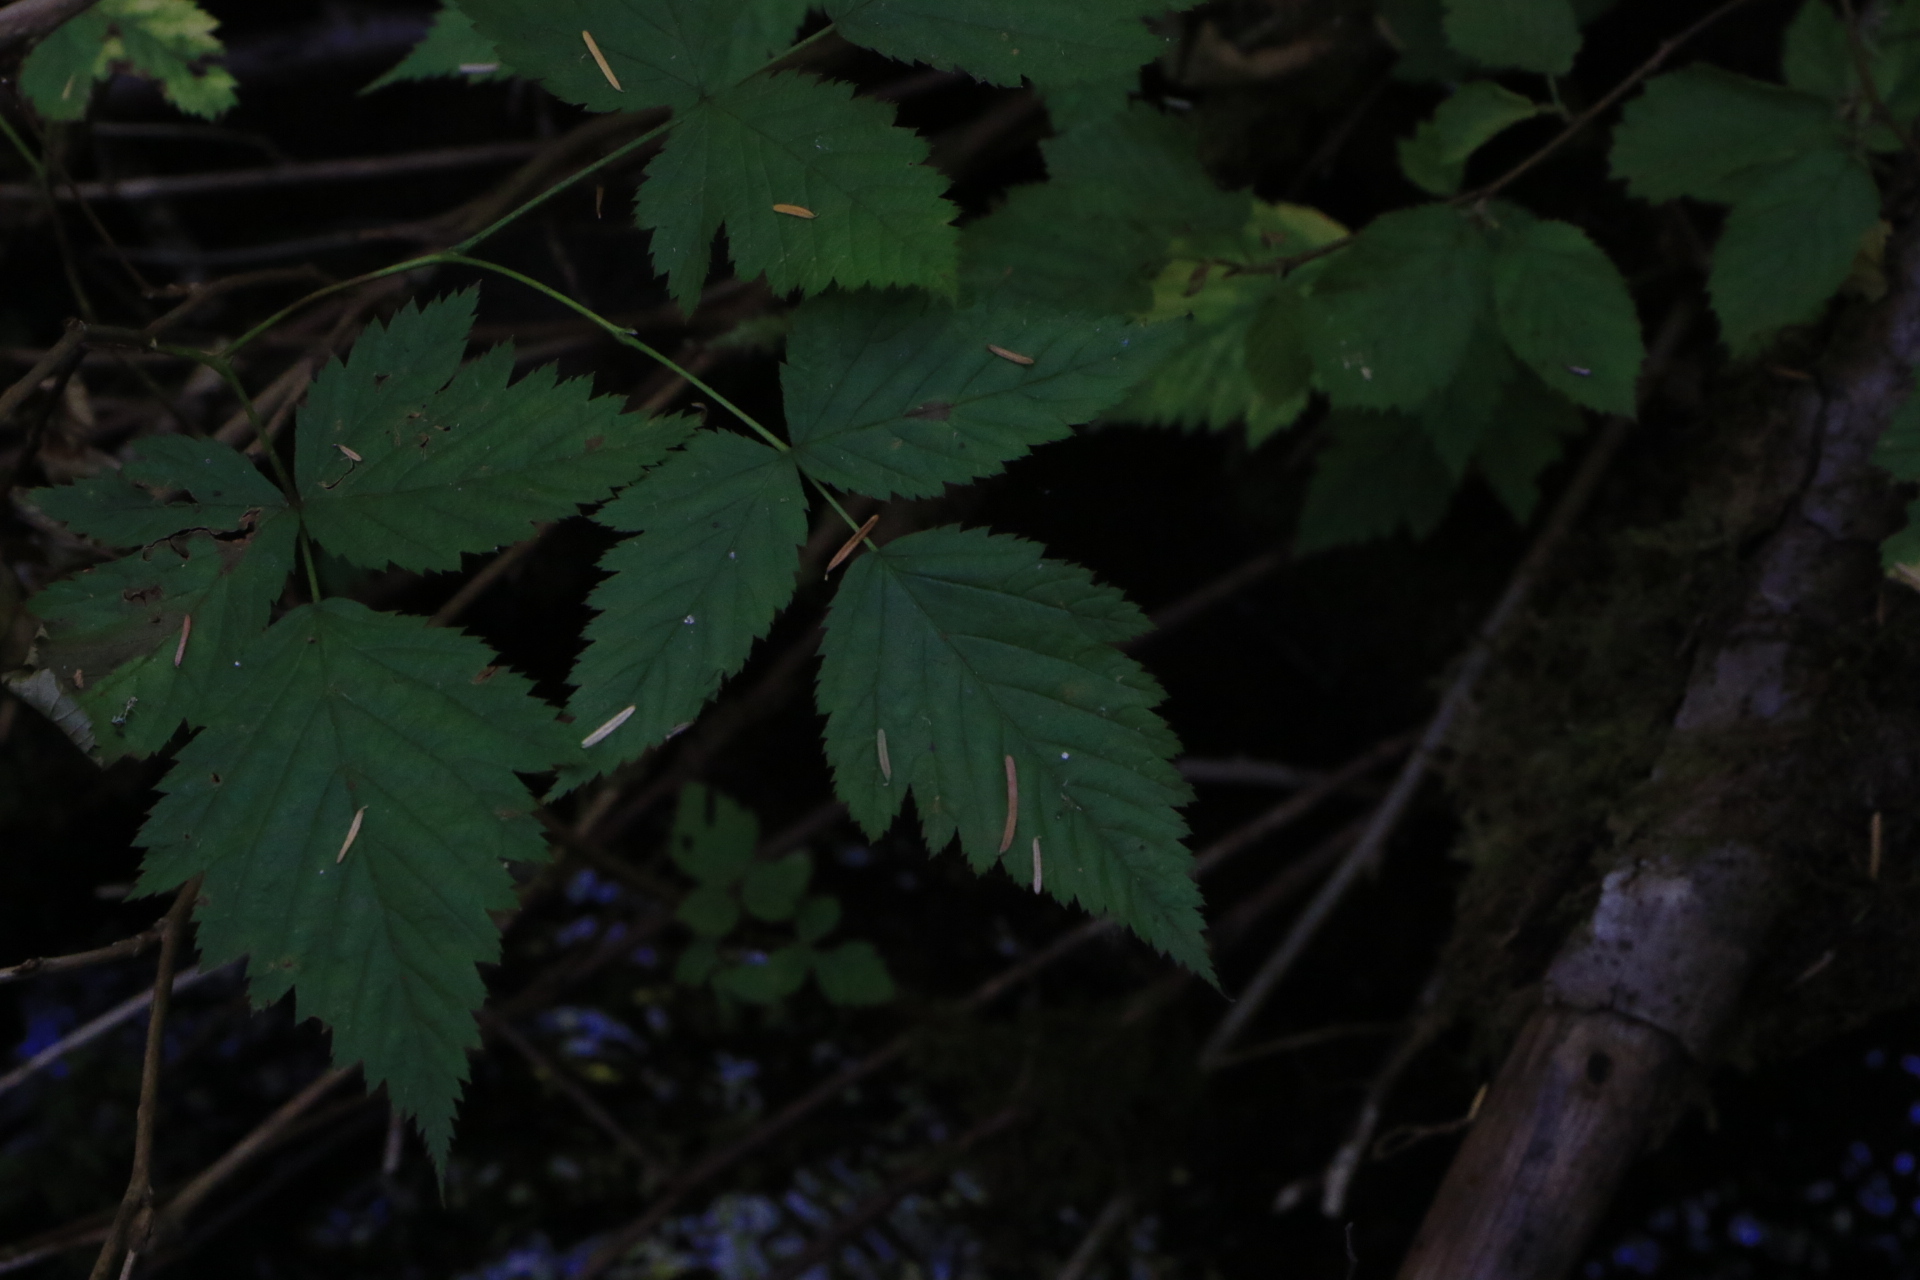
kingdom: Plantae
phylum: Tracheophyta
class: Magnoliopsida
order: Rosales
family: Rosaceae
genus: Rubus
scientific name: Rubus spectabilis
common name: Salmonberry
